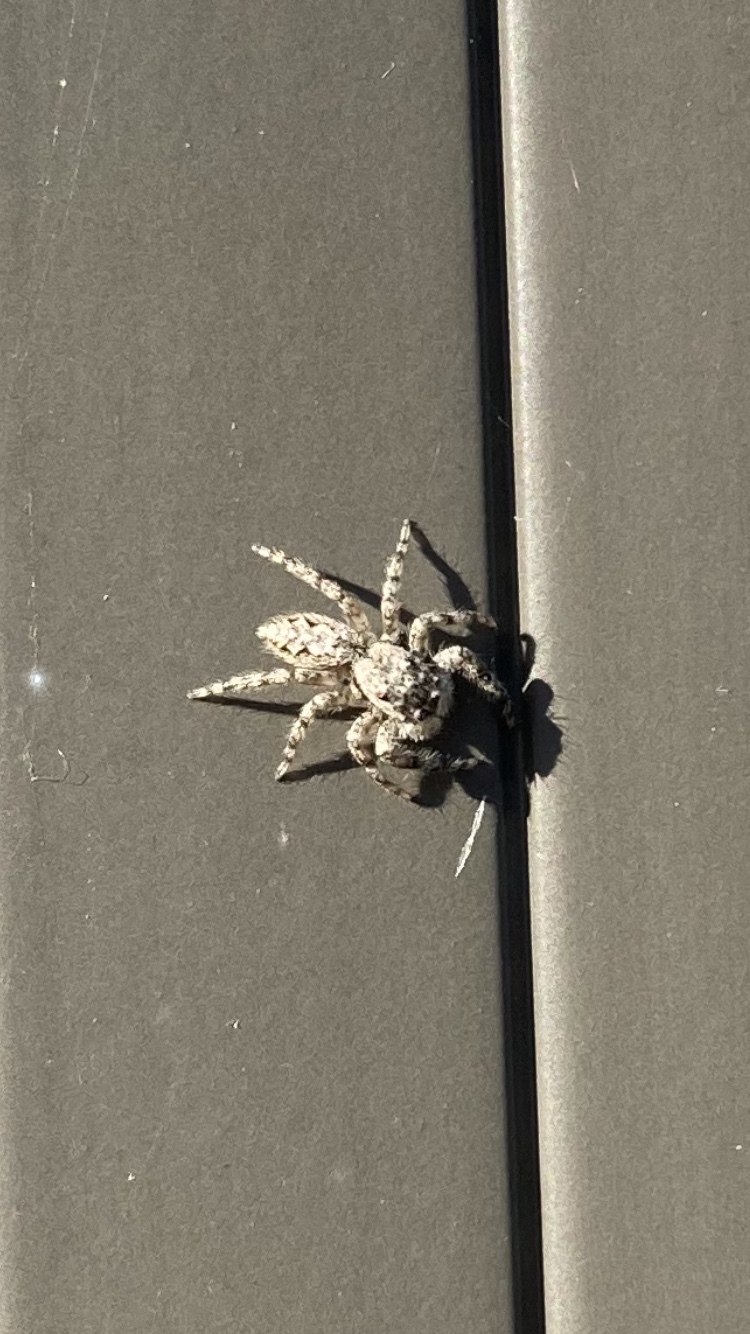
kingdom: Animalia
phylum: Arthropoda
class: Arachnida
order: Araneae
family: Salticidae
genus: Platycryptus
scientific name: Platycryptus undatus
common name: Tan jumping spider
